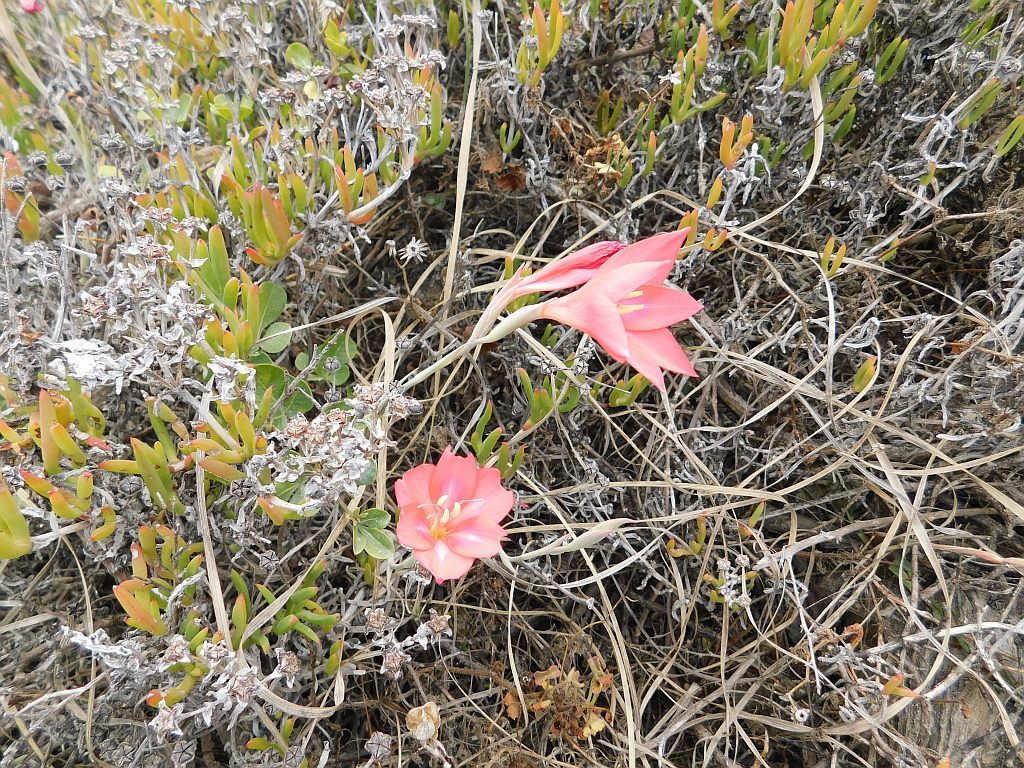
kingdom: Plantae
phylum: Tracheophyta
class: Liliopsida
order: Asparagales
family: Iridaceae
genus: Gladiolus
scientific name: Gladiolus carmineus
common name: Hermanus gladiolus
